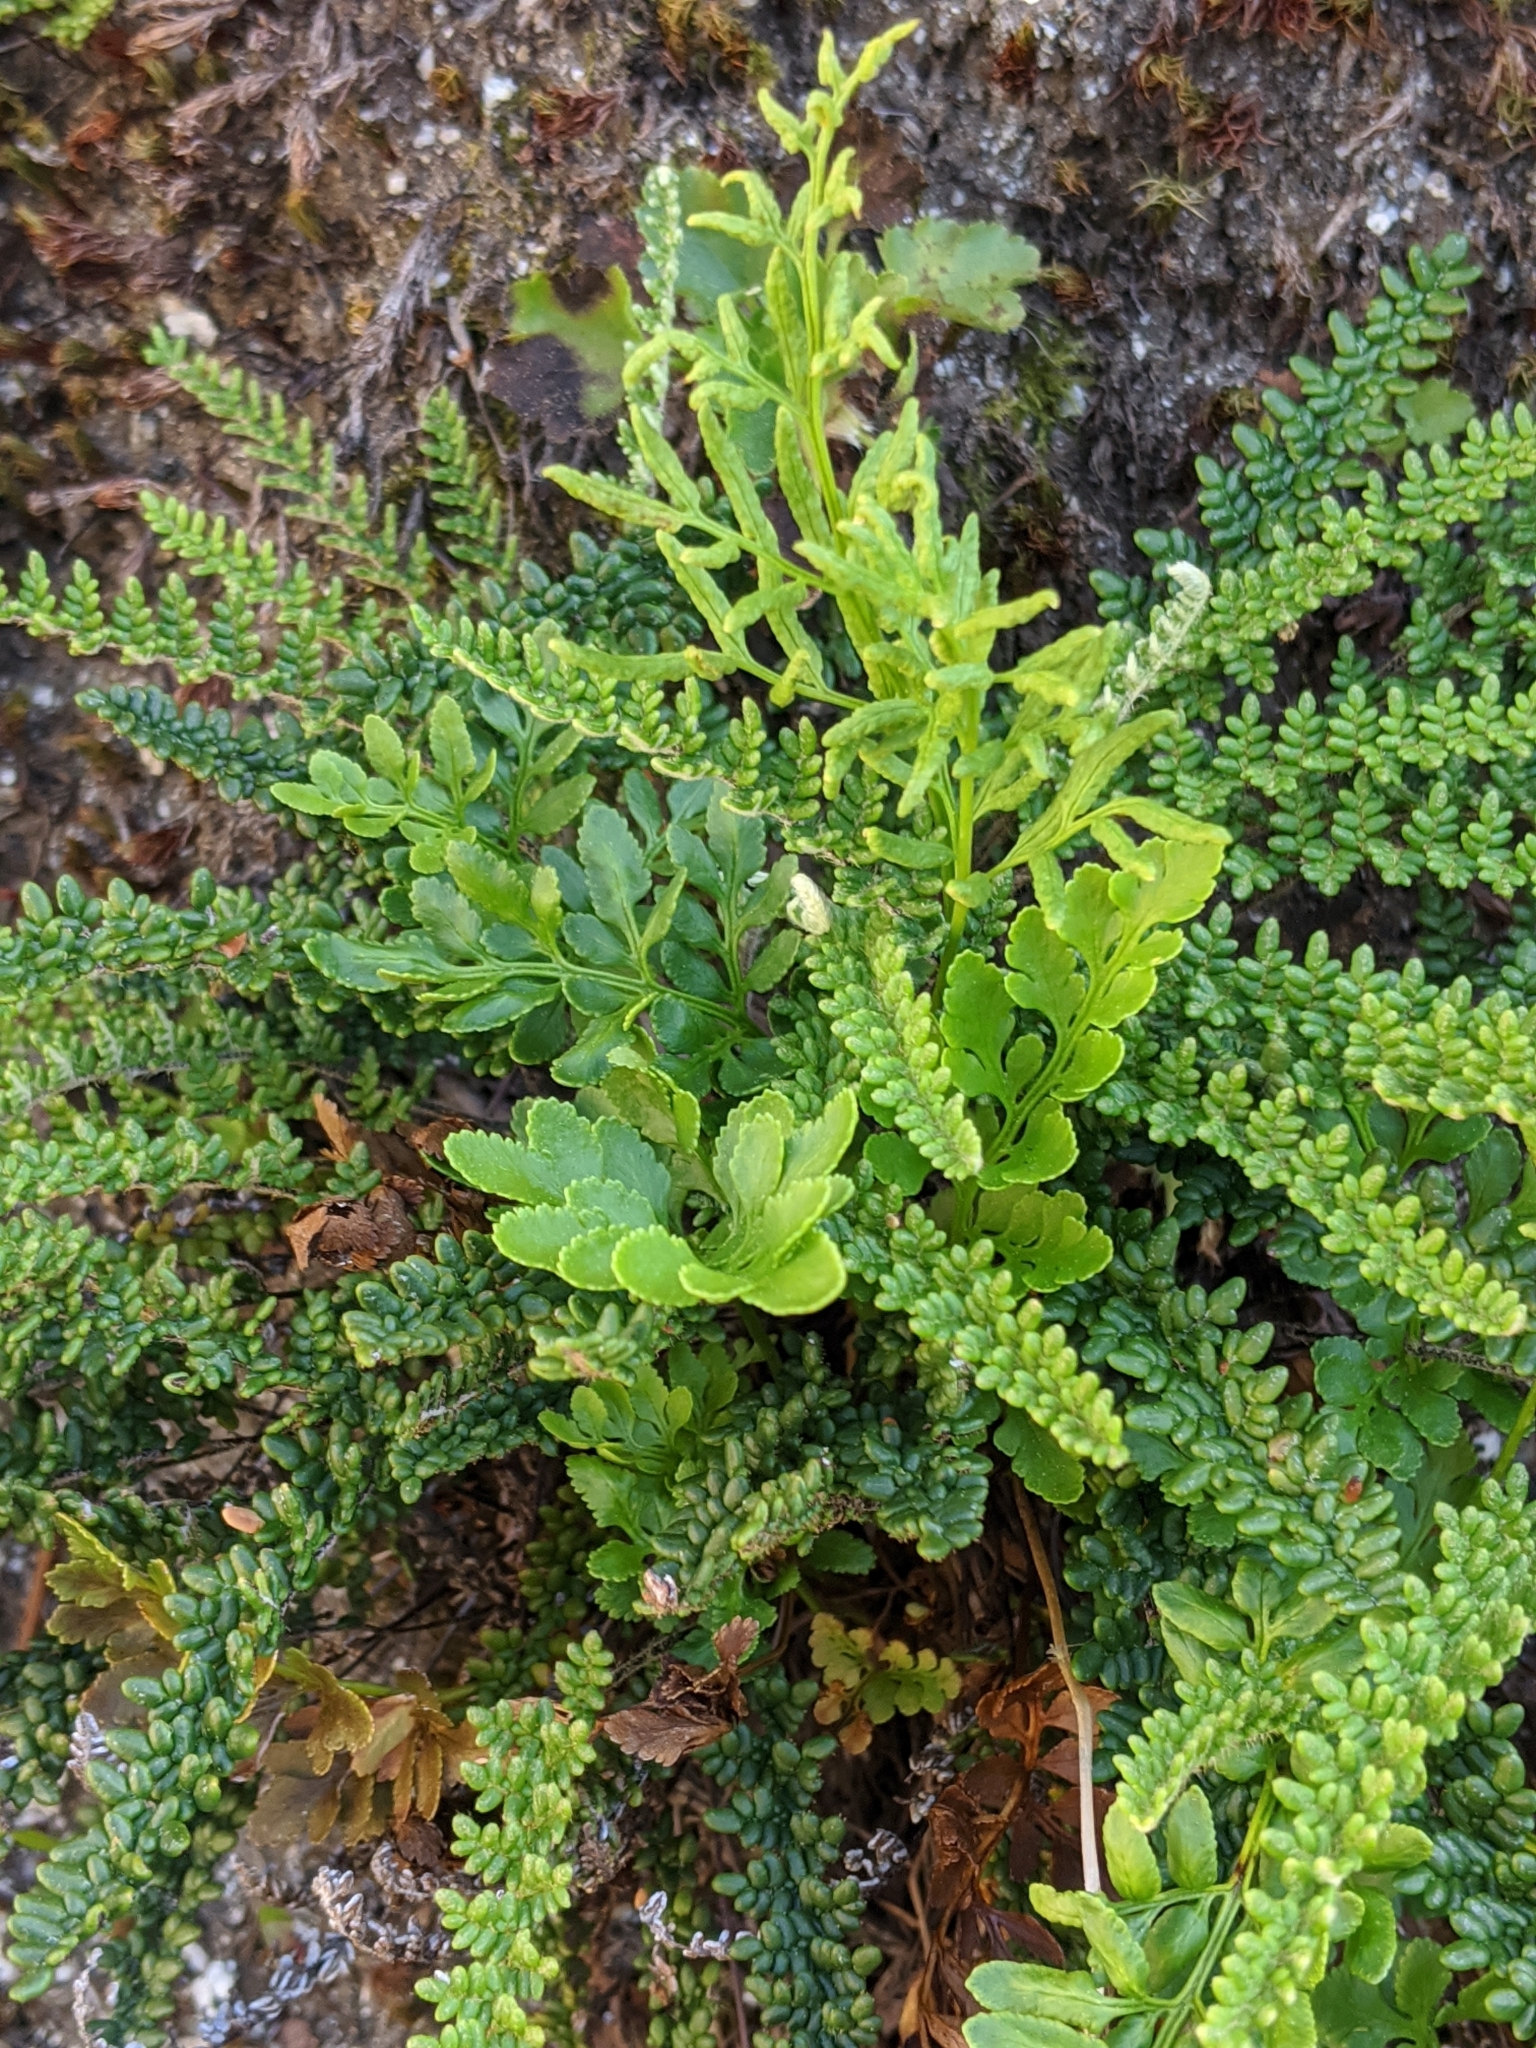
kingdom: Plantae
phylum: Tracheophyta
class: Polypodiopsida
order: Polypodiales
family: Pteridaceae
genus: Cryptogramma
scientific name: Cryptogramma acrostichoides
